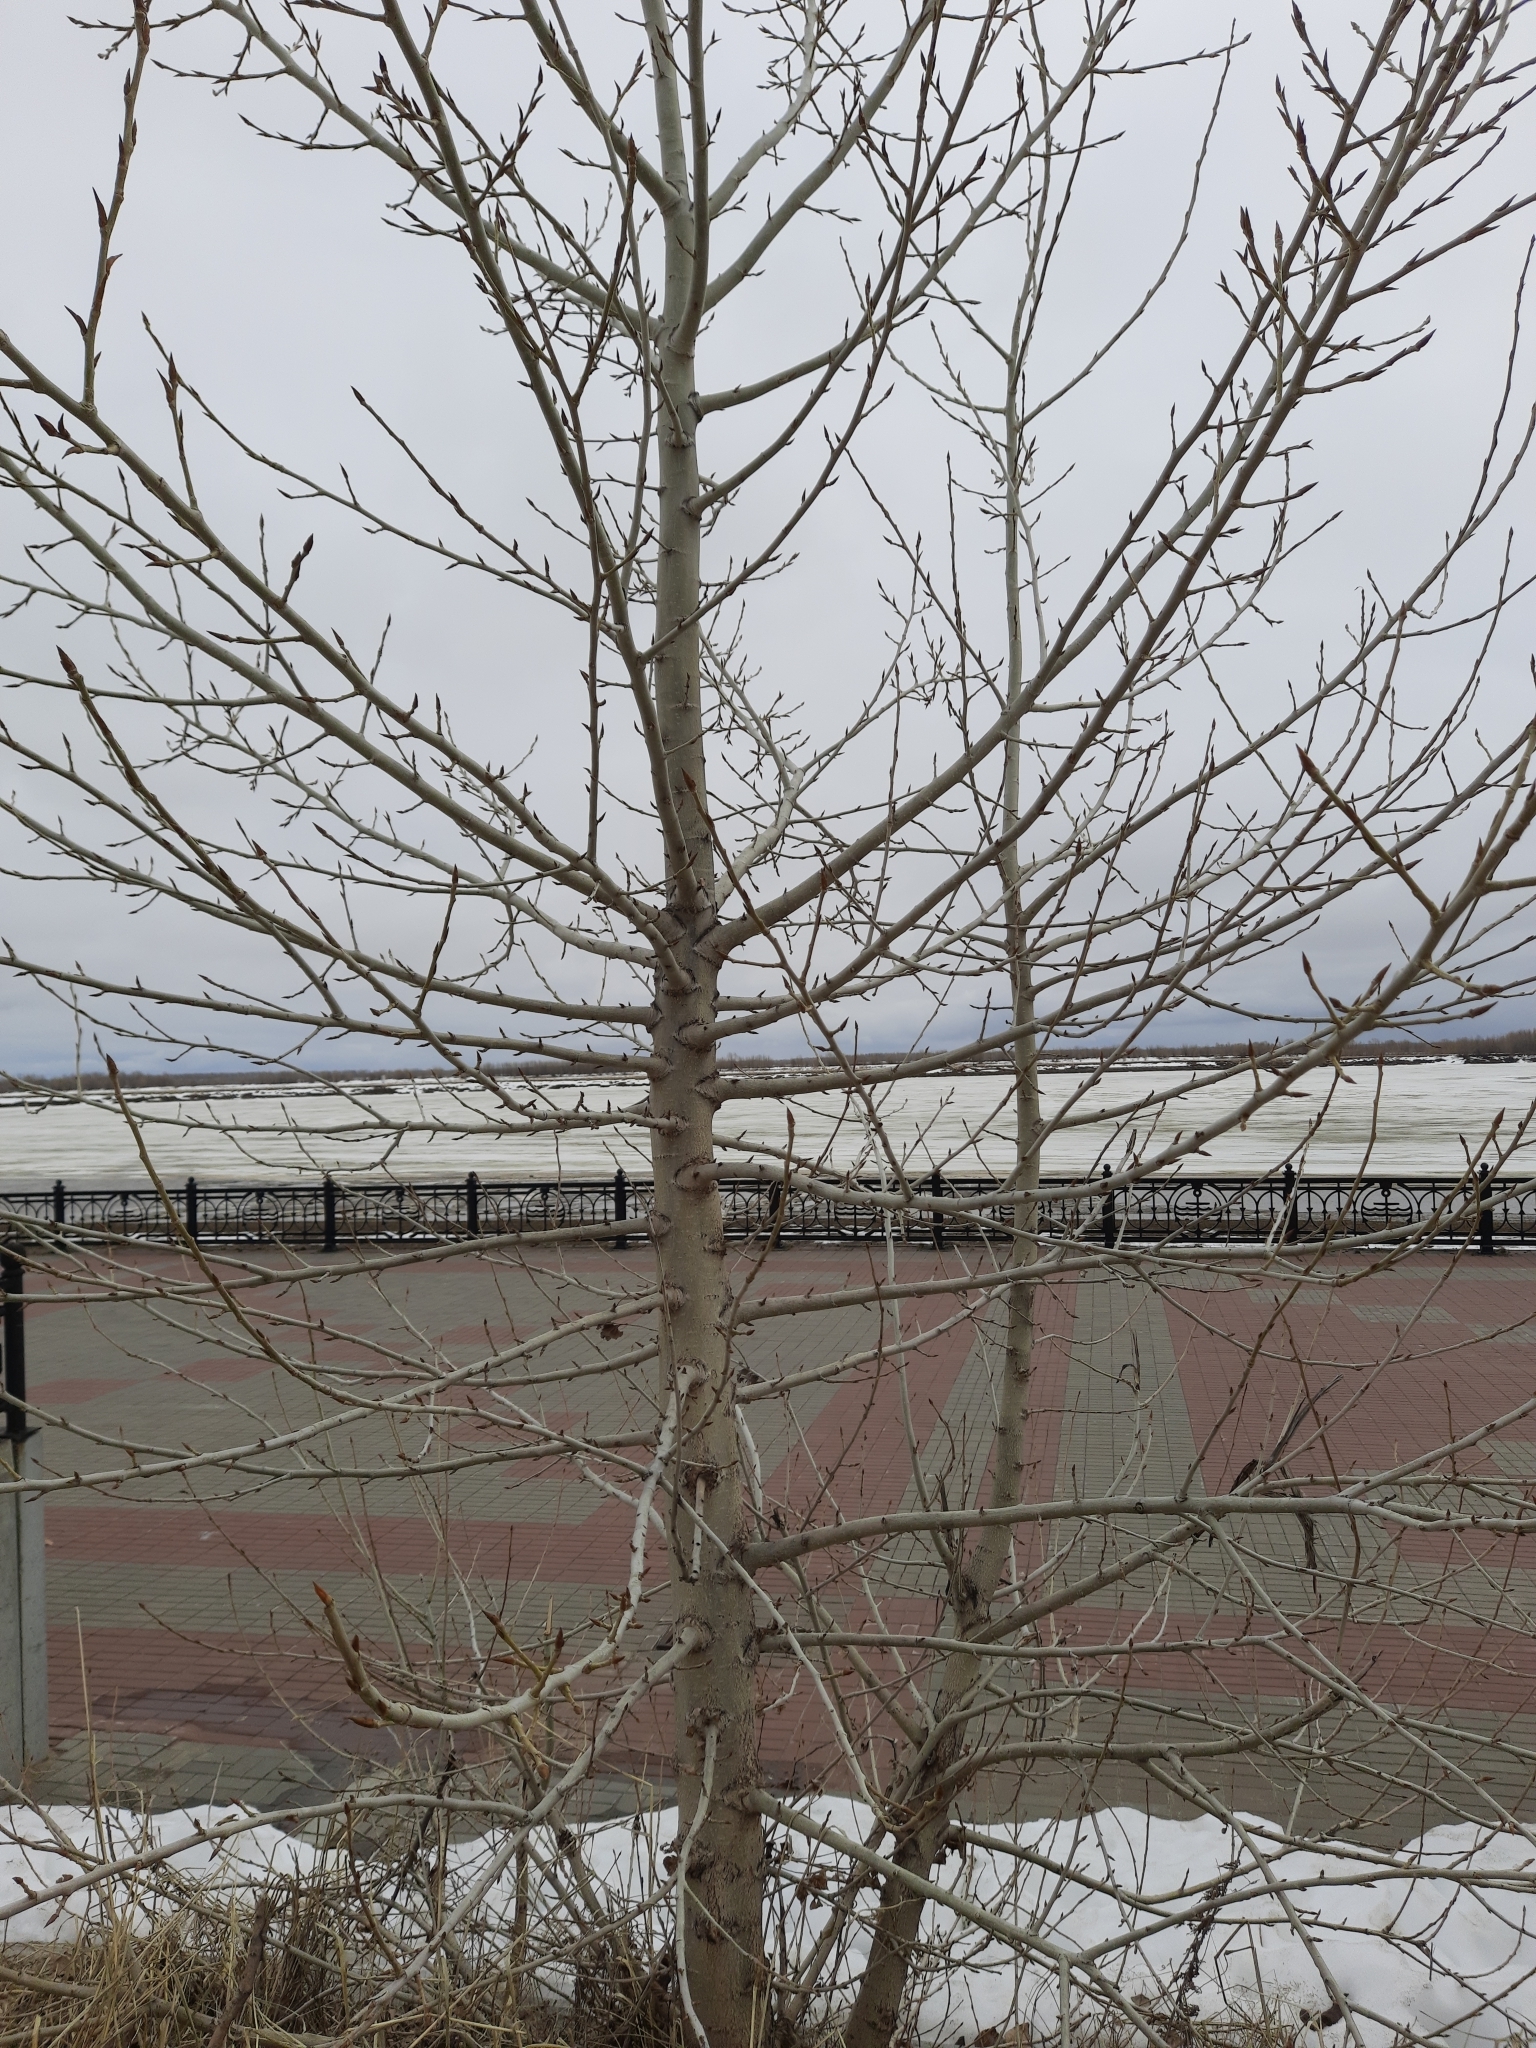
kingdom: Plantae
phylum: Tracheophyta
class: Magnoliopsida
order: Malpighiales
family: Salicaceae
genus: Populus
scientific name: Populus sibirica
